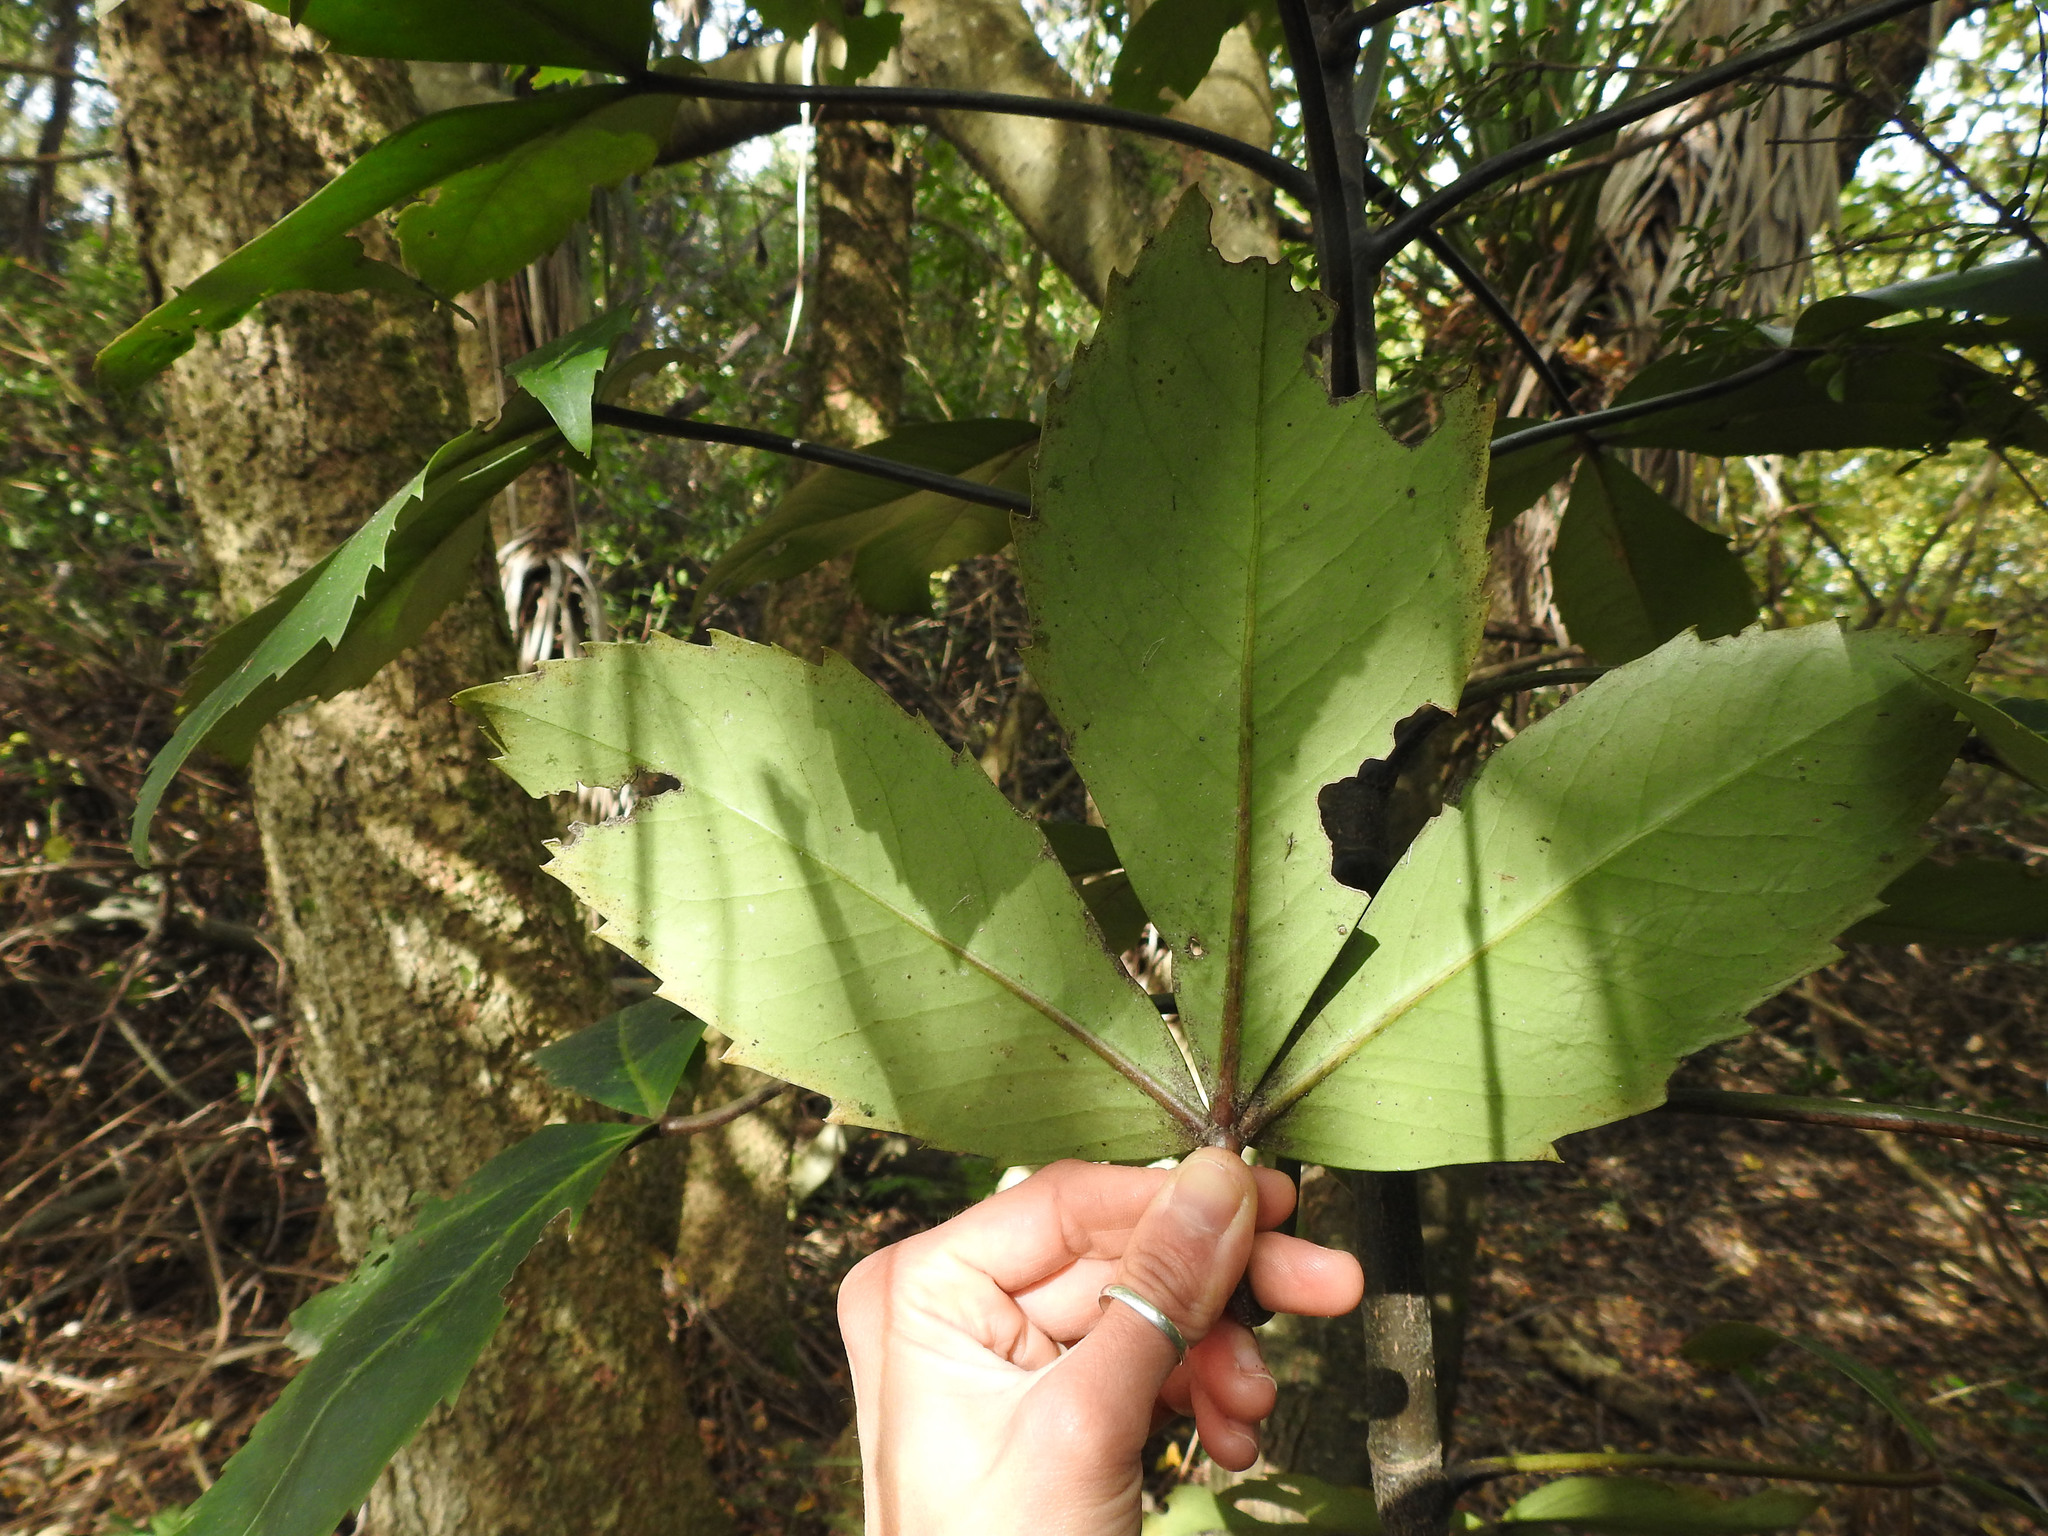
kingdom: Plantae
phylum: Tracheophyta
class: Magnoliopsida
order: Apiales
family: Araliaceae
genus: Neopanax
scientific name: Neopanax colensoi
